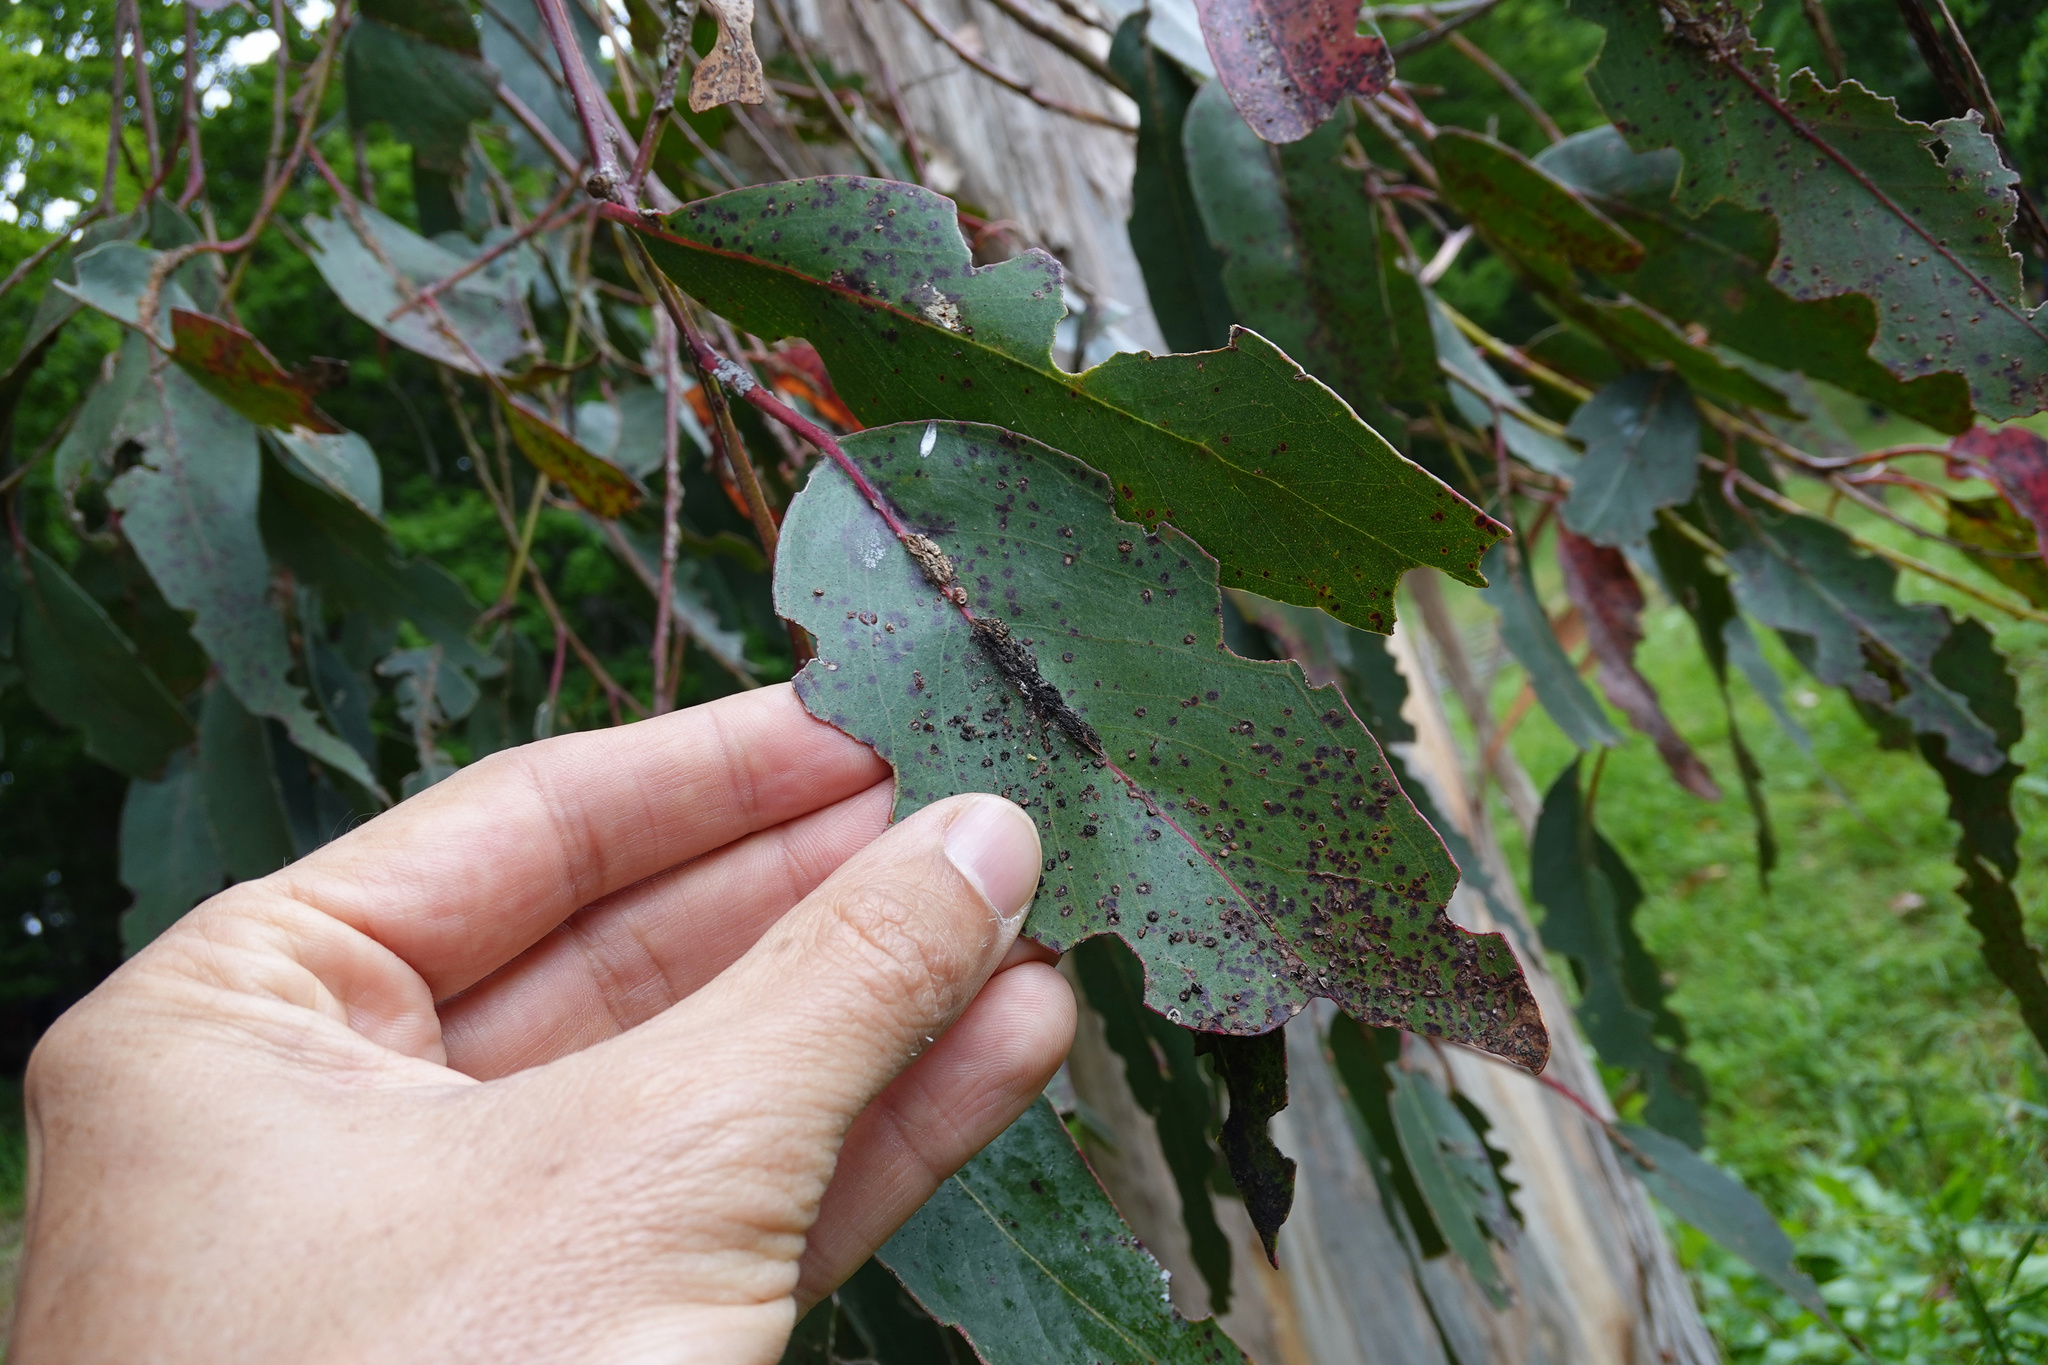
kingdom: Animalia
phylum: Arthropoda
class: Insecta
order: Hymenoptera
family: Eulophidae
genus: Ophelimus
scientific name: Ophelimus eucalypti
